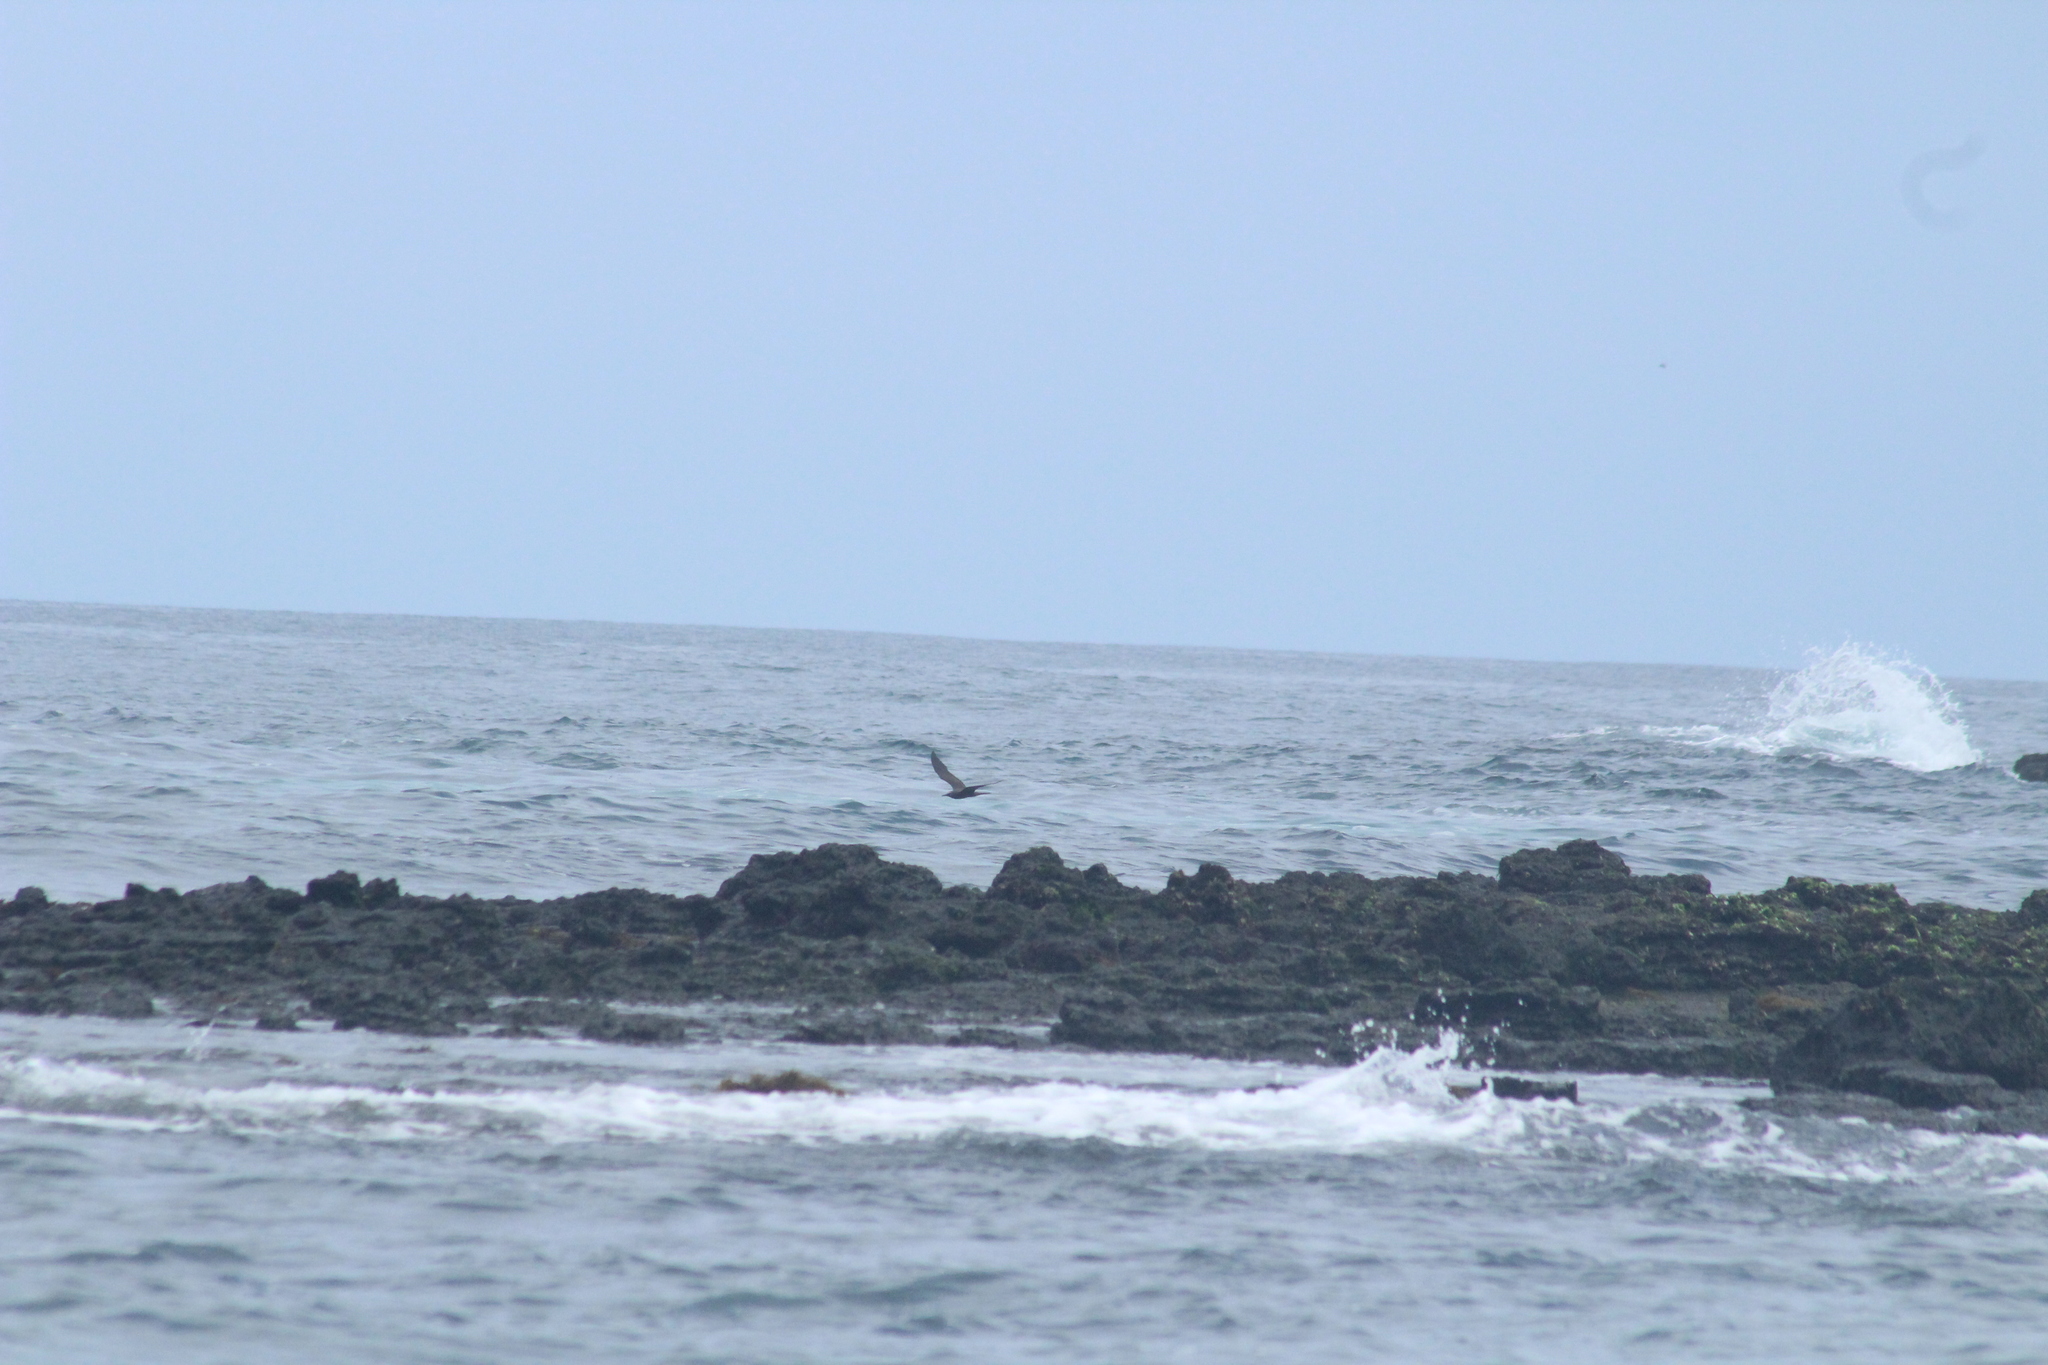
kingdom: Animalia
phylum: Chordata
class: Aves
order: Charadriiformes
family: Laridae
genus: Anous
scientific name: Anous stolidus
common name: Brown noddy
